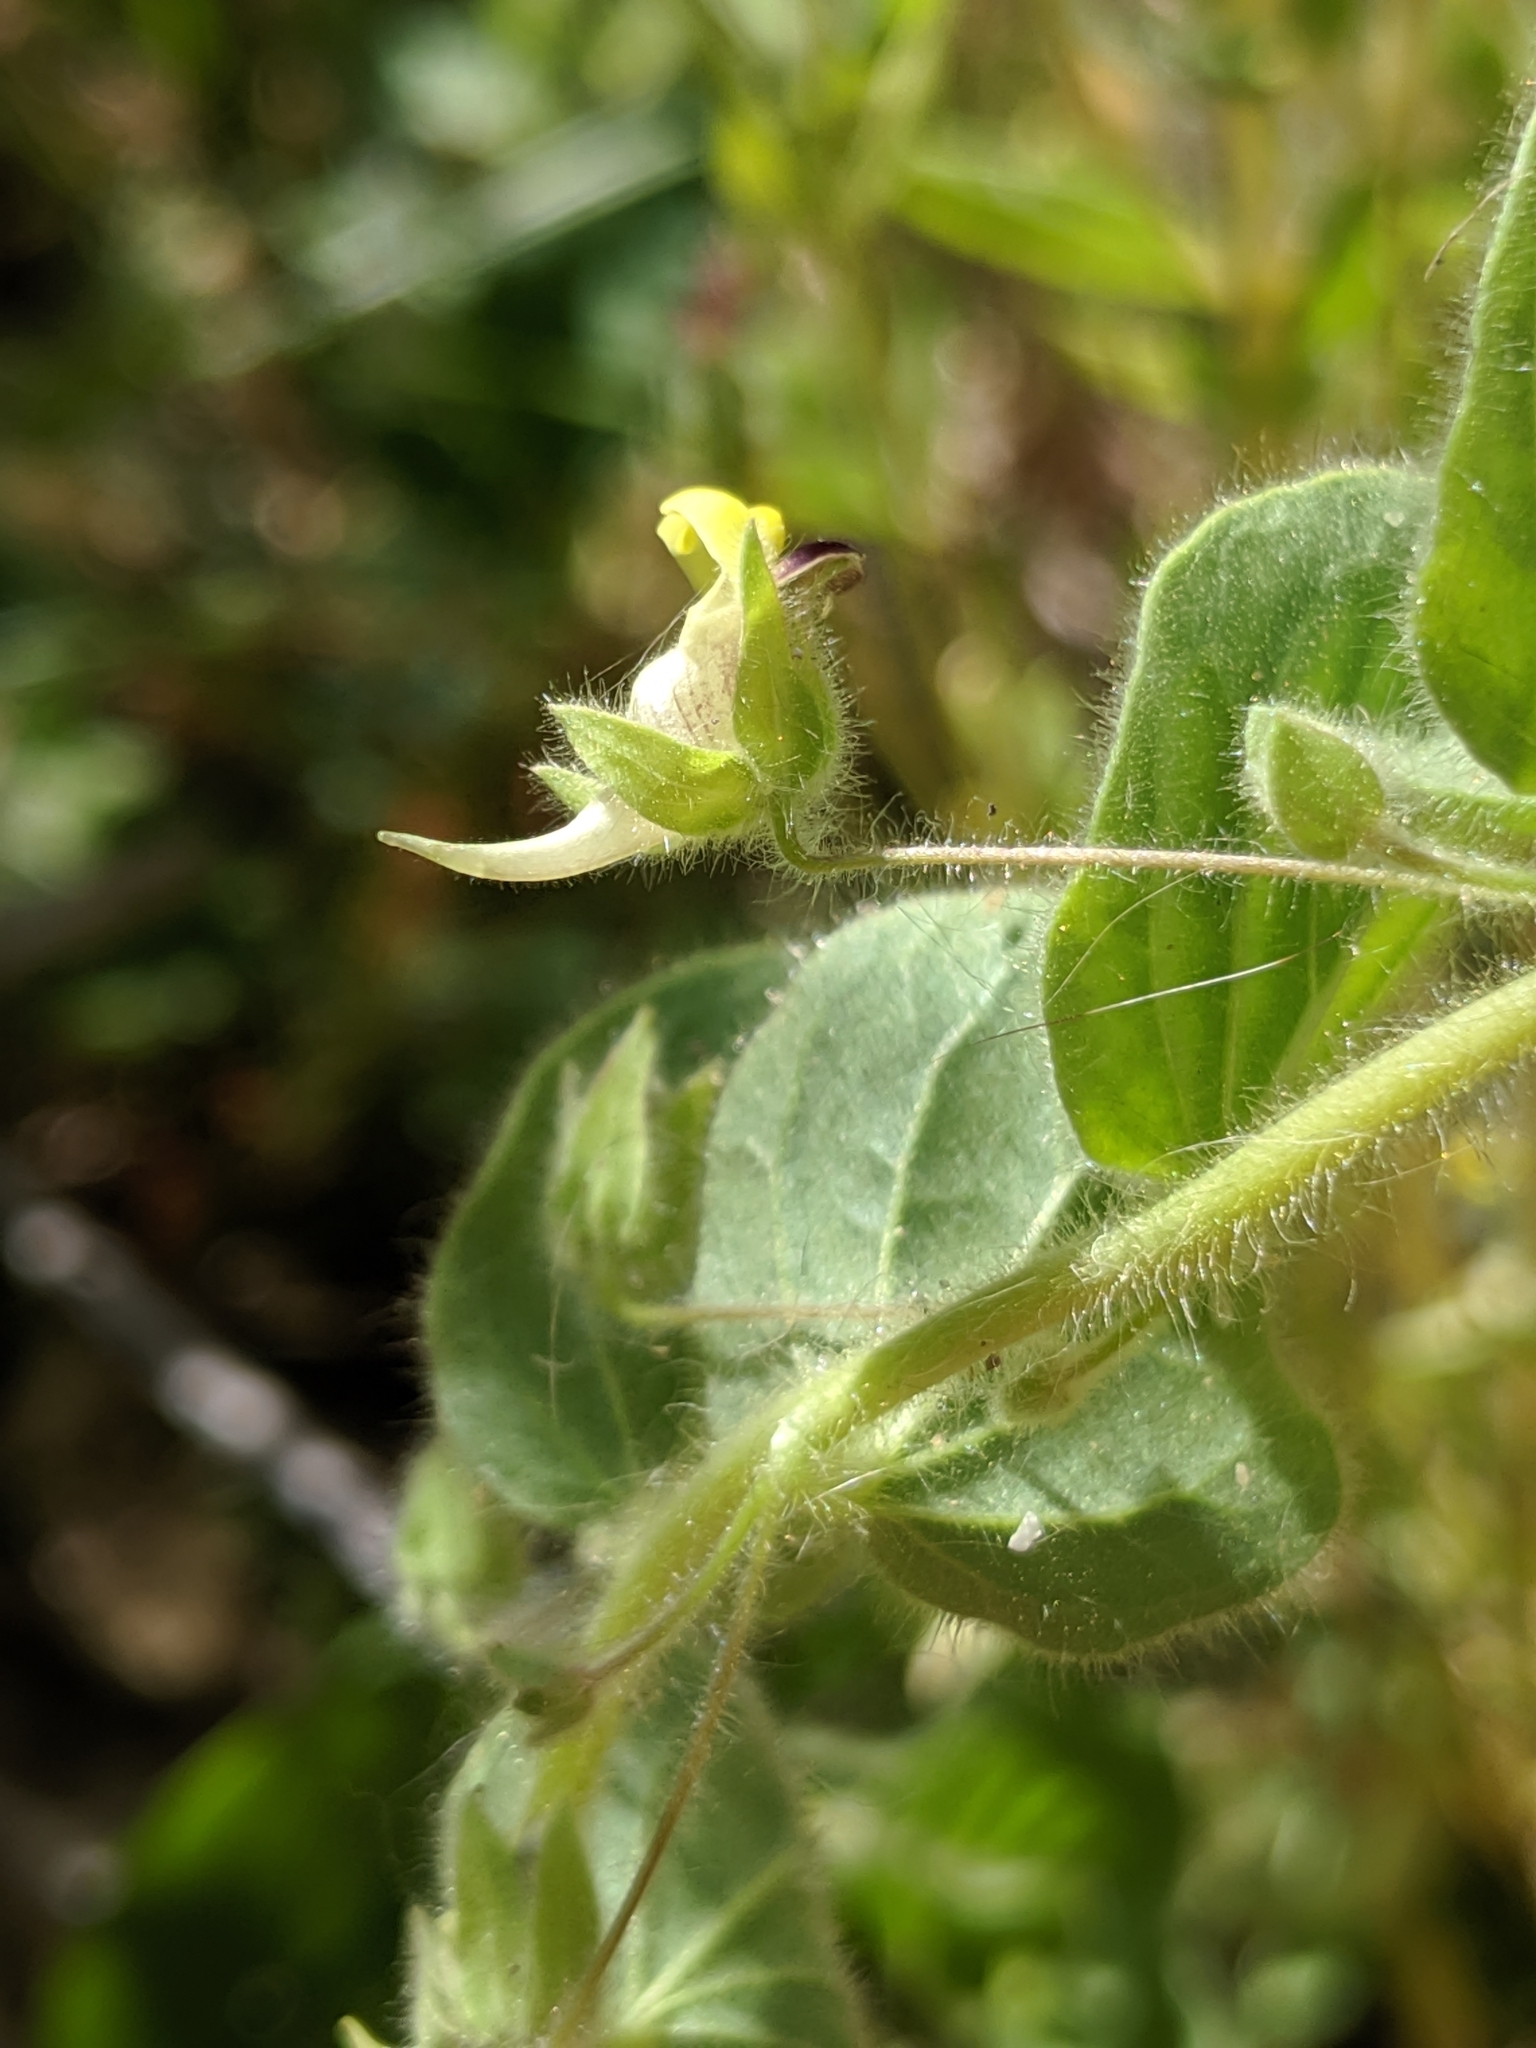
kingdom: Plantae
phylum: Tracheophyta
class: Magnoliopsida
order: Lamiales
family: Plantaginaceae
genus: Kickxia
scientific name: Kickxia elatine
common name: Sharp-leaved fluellen
